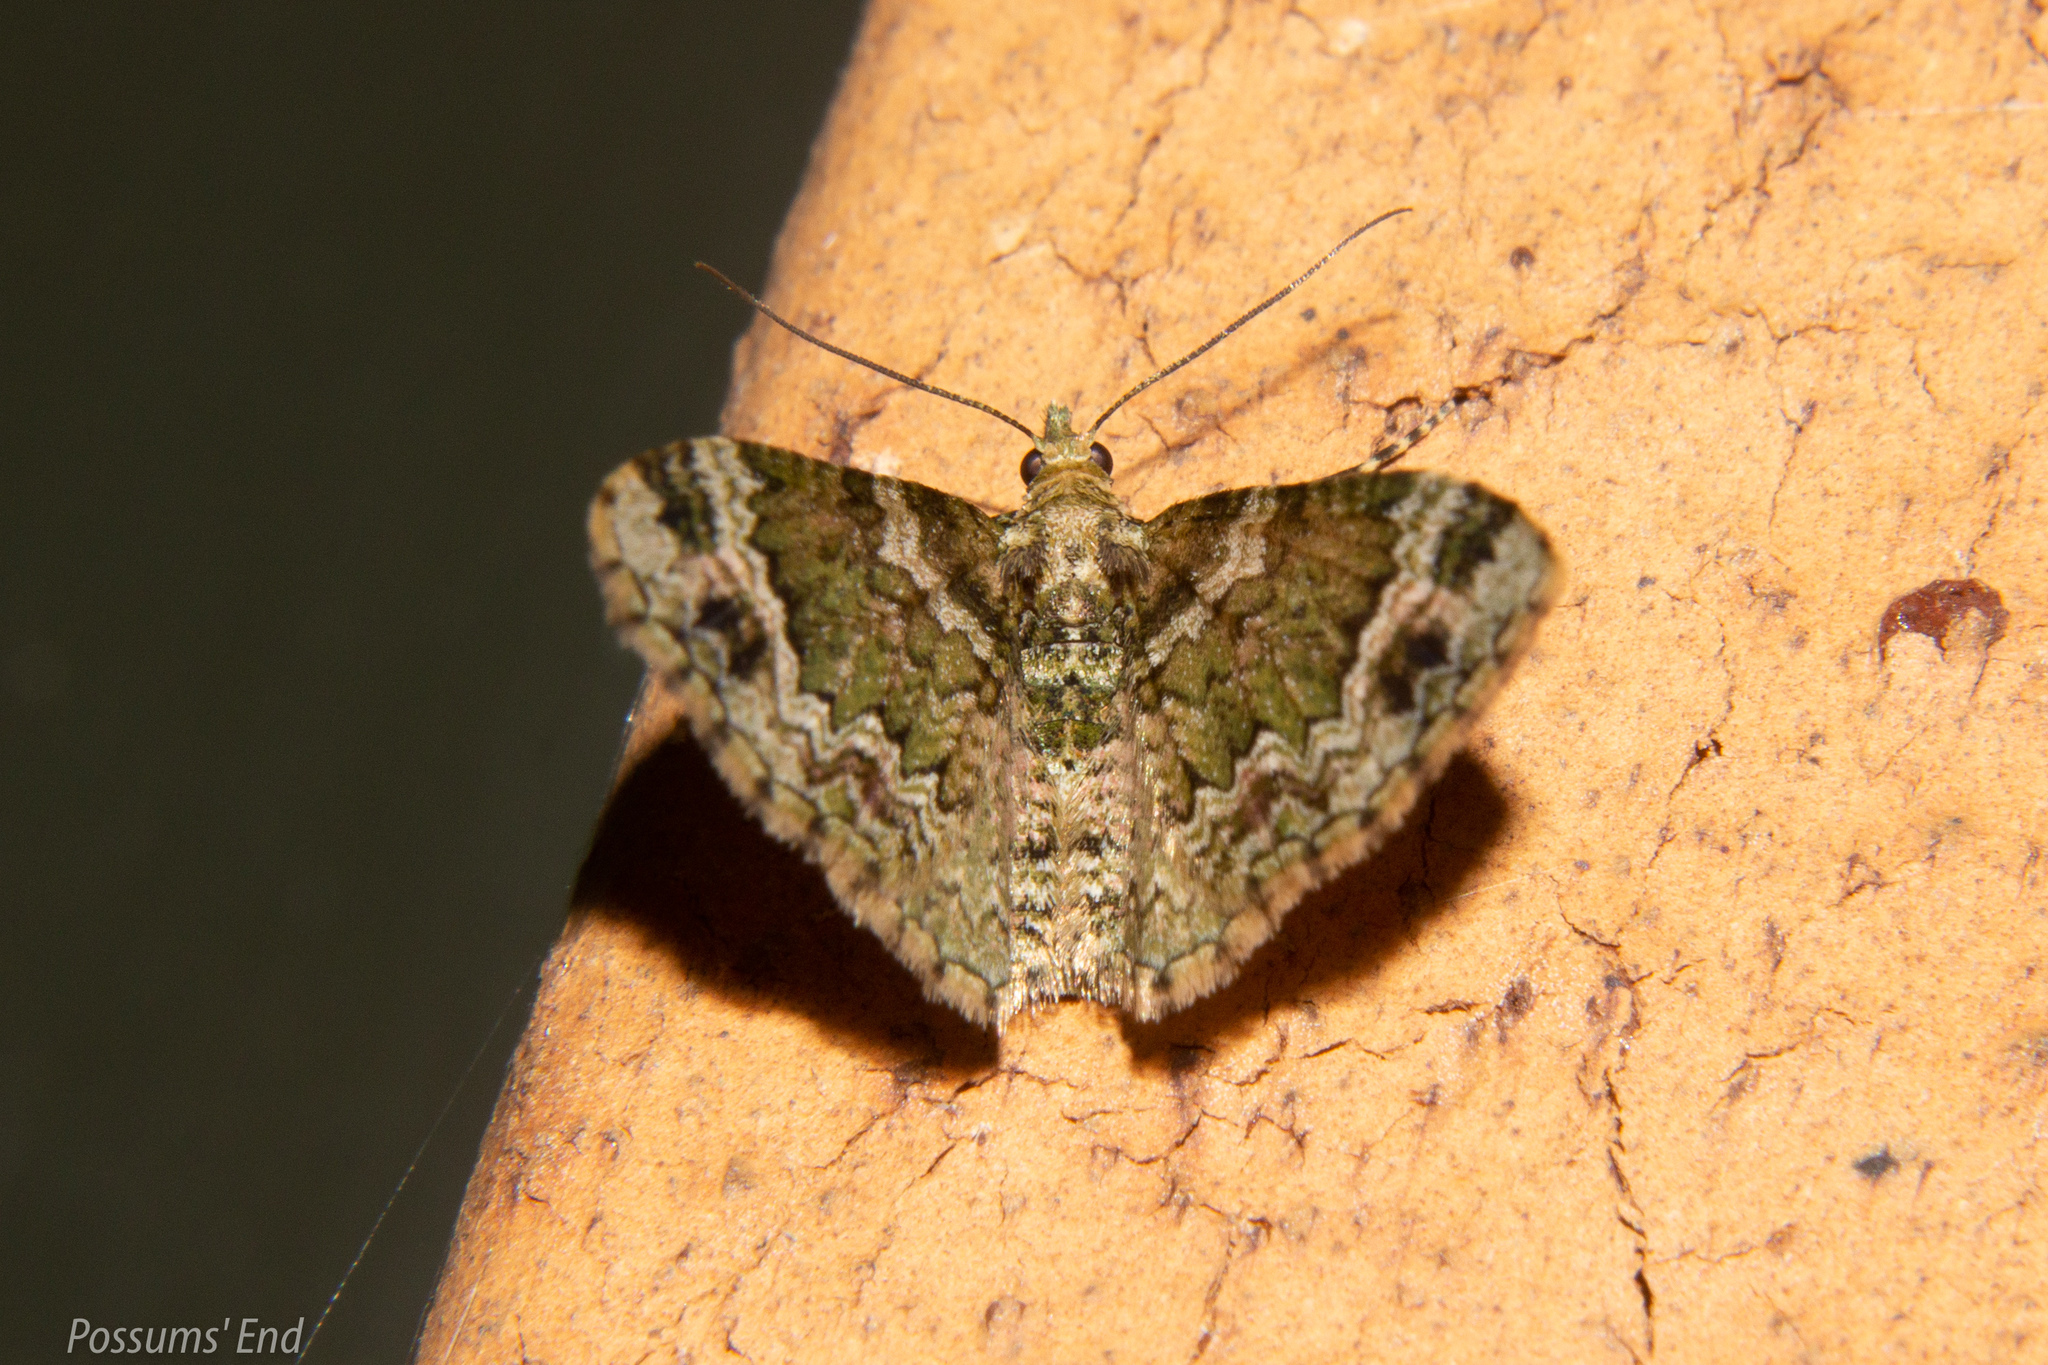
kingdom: Animalia
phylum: Arthropoda
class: Insecta
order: Lepidoptera
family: Geometridae
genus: Pasiphila
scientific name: Pasiphila urticae
